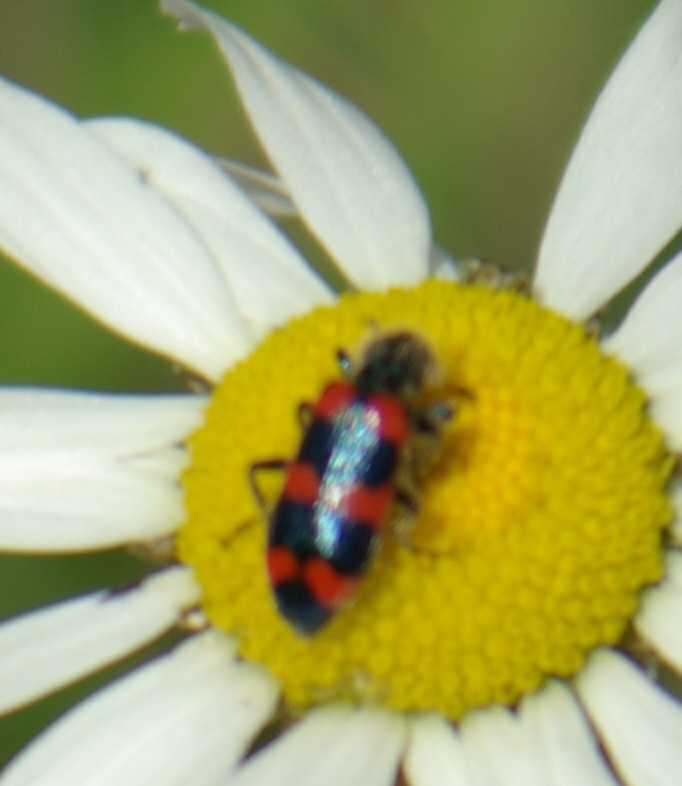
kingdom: Animalia
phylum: Arthropoda
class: Insecta
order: Coleoptera
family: Cleridae
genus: Trichodes
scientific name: Trichodes nutalli
